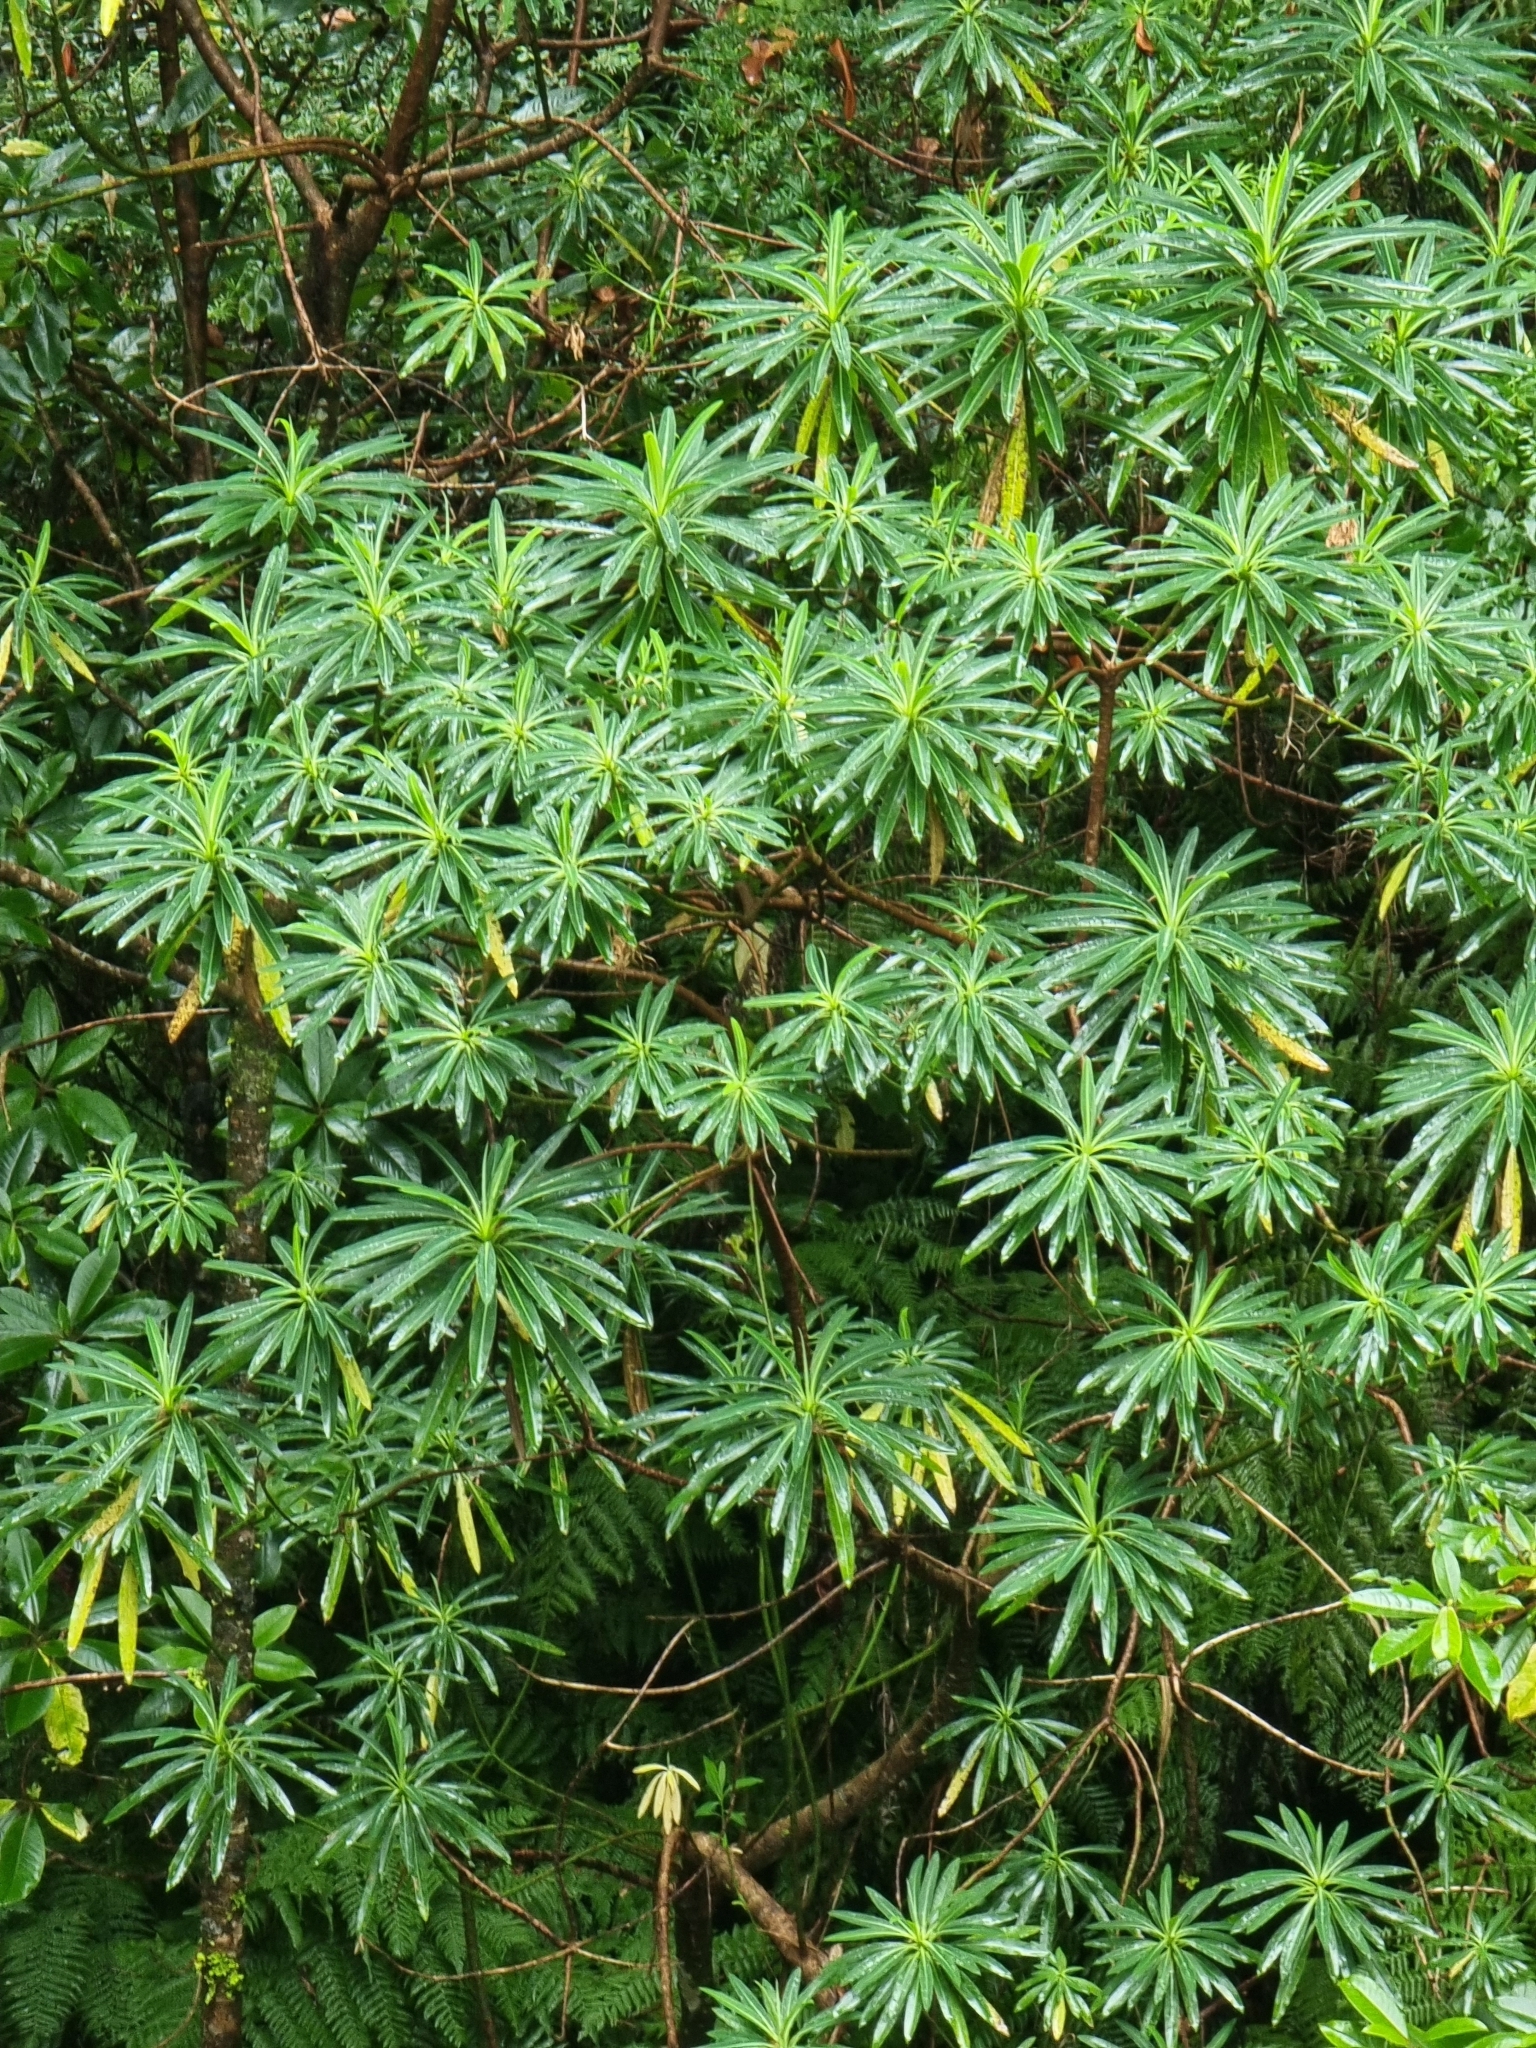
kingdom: Plantae
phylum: Tracheophyta
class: Magnoliopsida
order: Malpighiales
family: Euphorbiaceae
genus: Euphorbia
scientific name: Euphorbia mellifera
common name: Canary spurge
